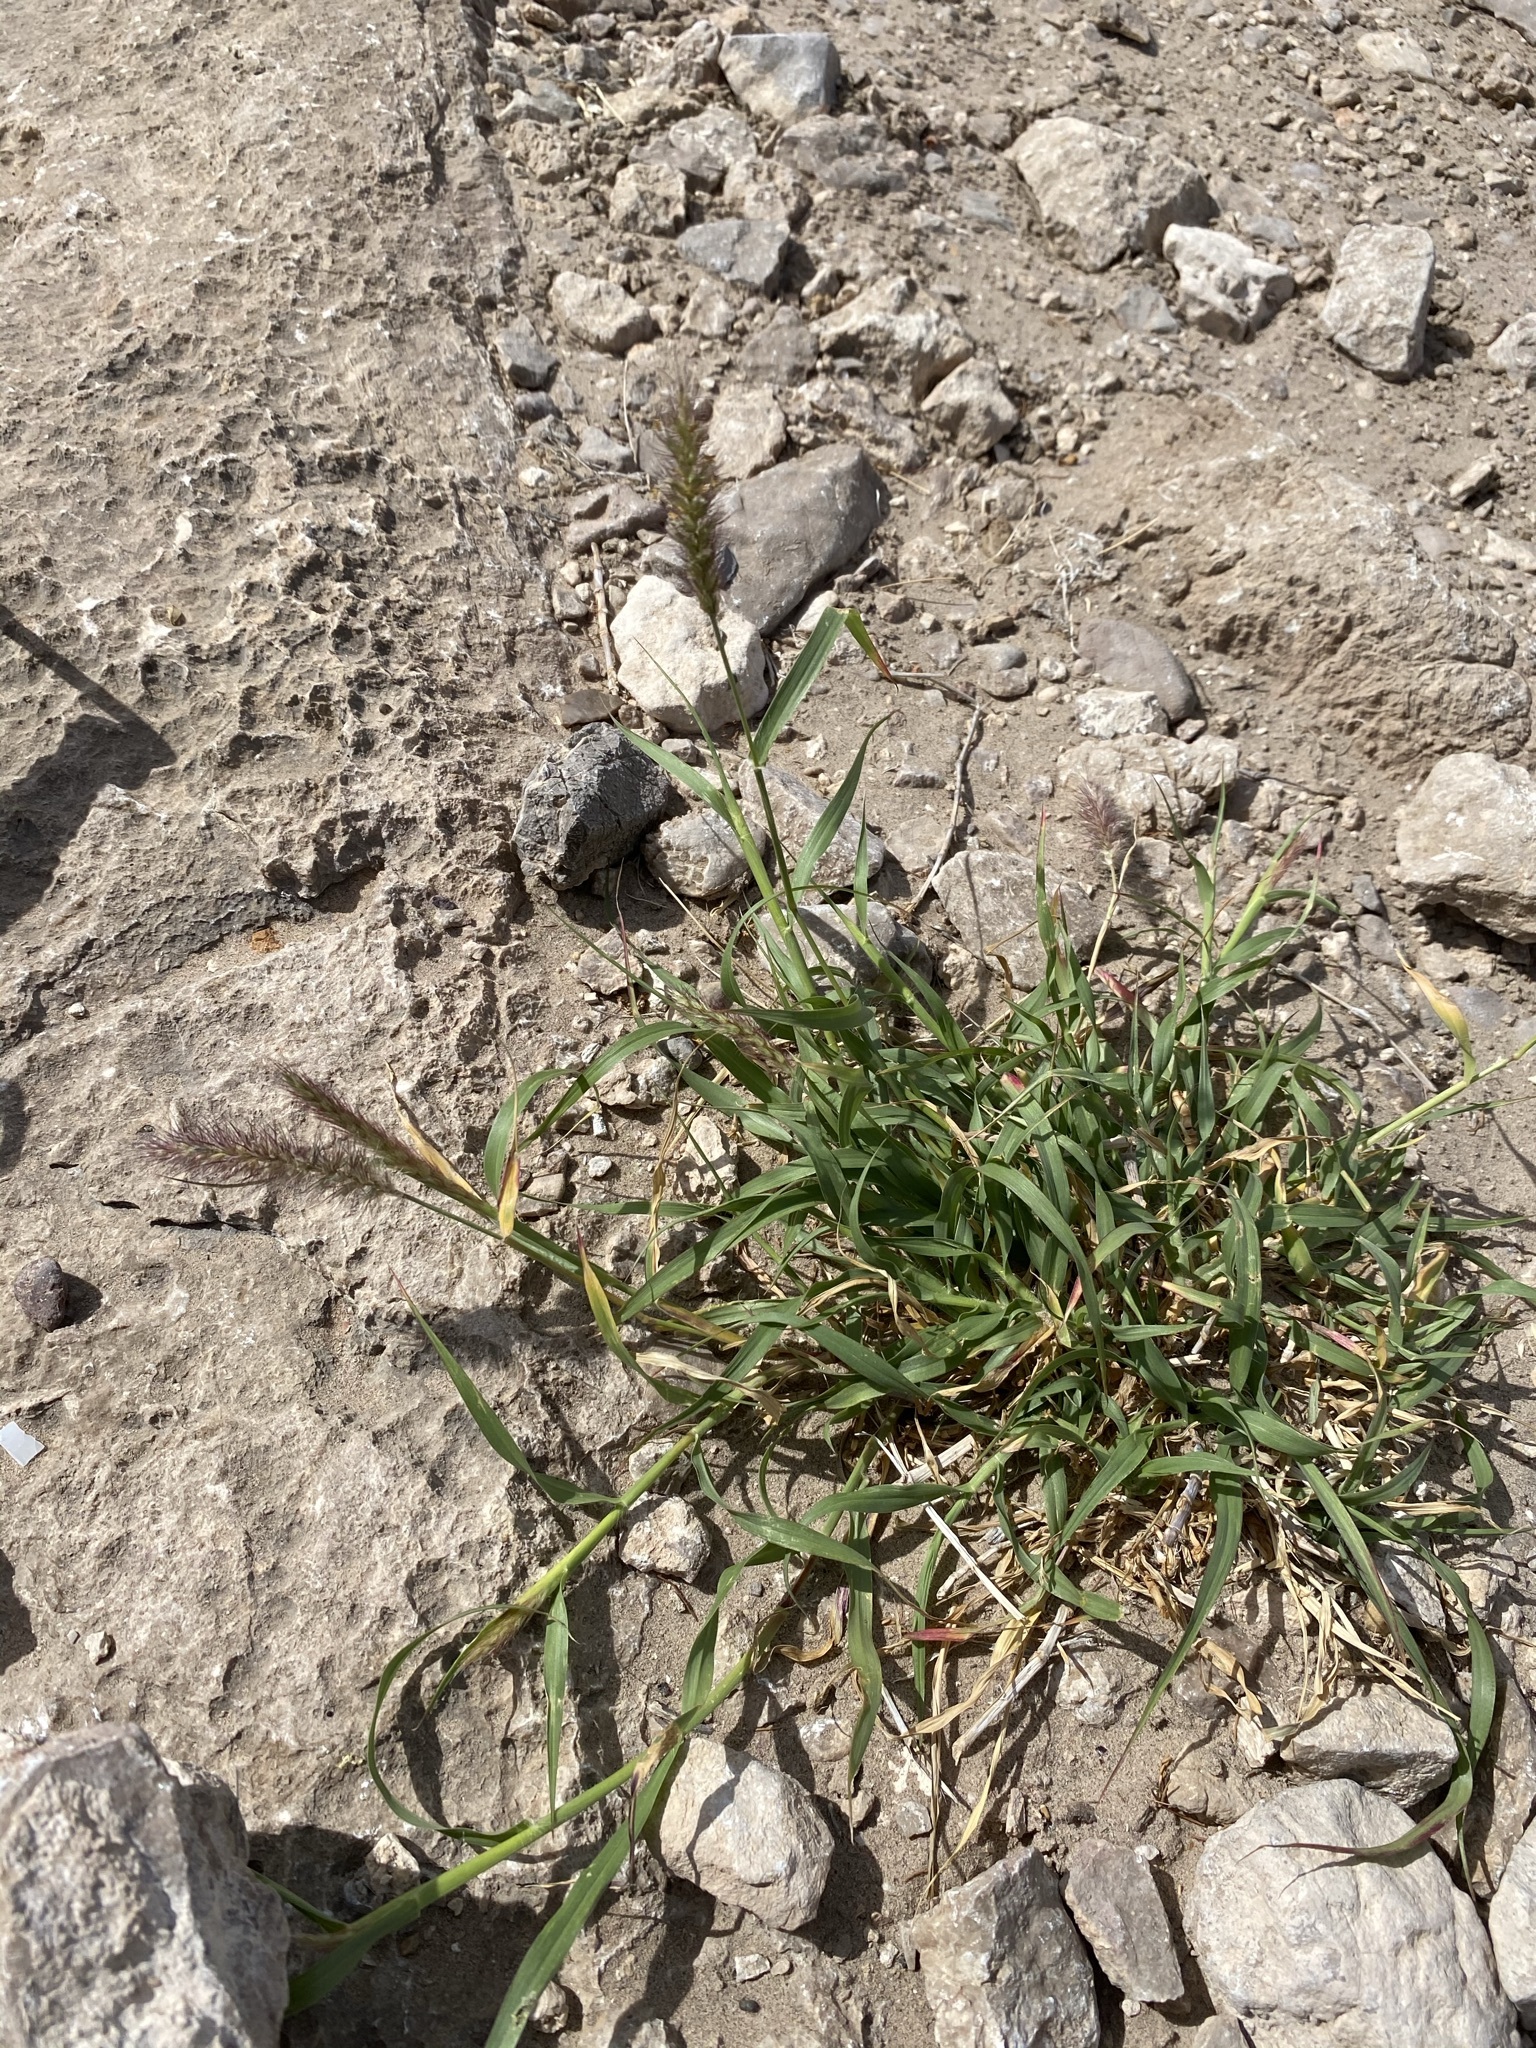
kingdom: Plantae
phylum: Tracheophyta
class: Liliopsida
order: Poales
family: Poaceae
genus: Cenchrus
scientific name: Cenchrus ciliaris
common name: Buffelgrass
